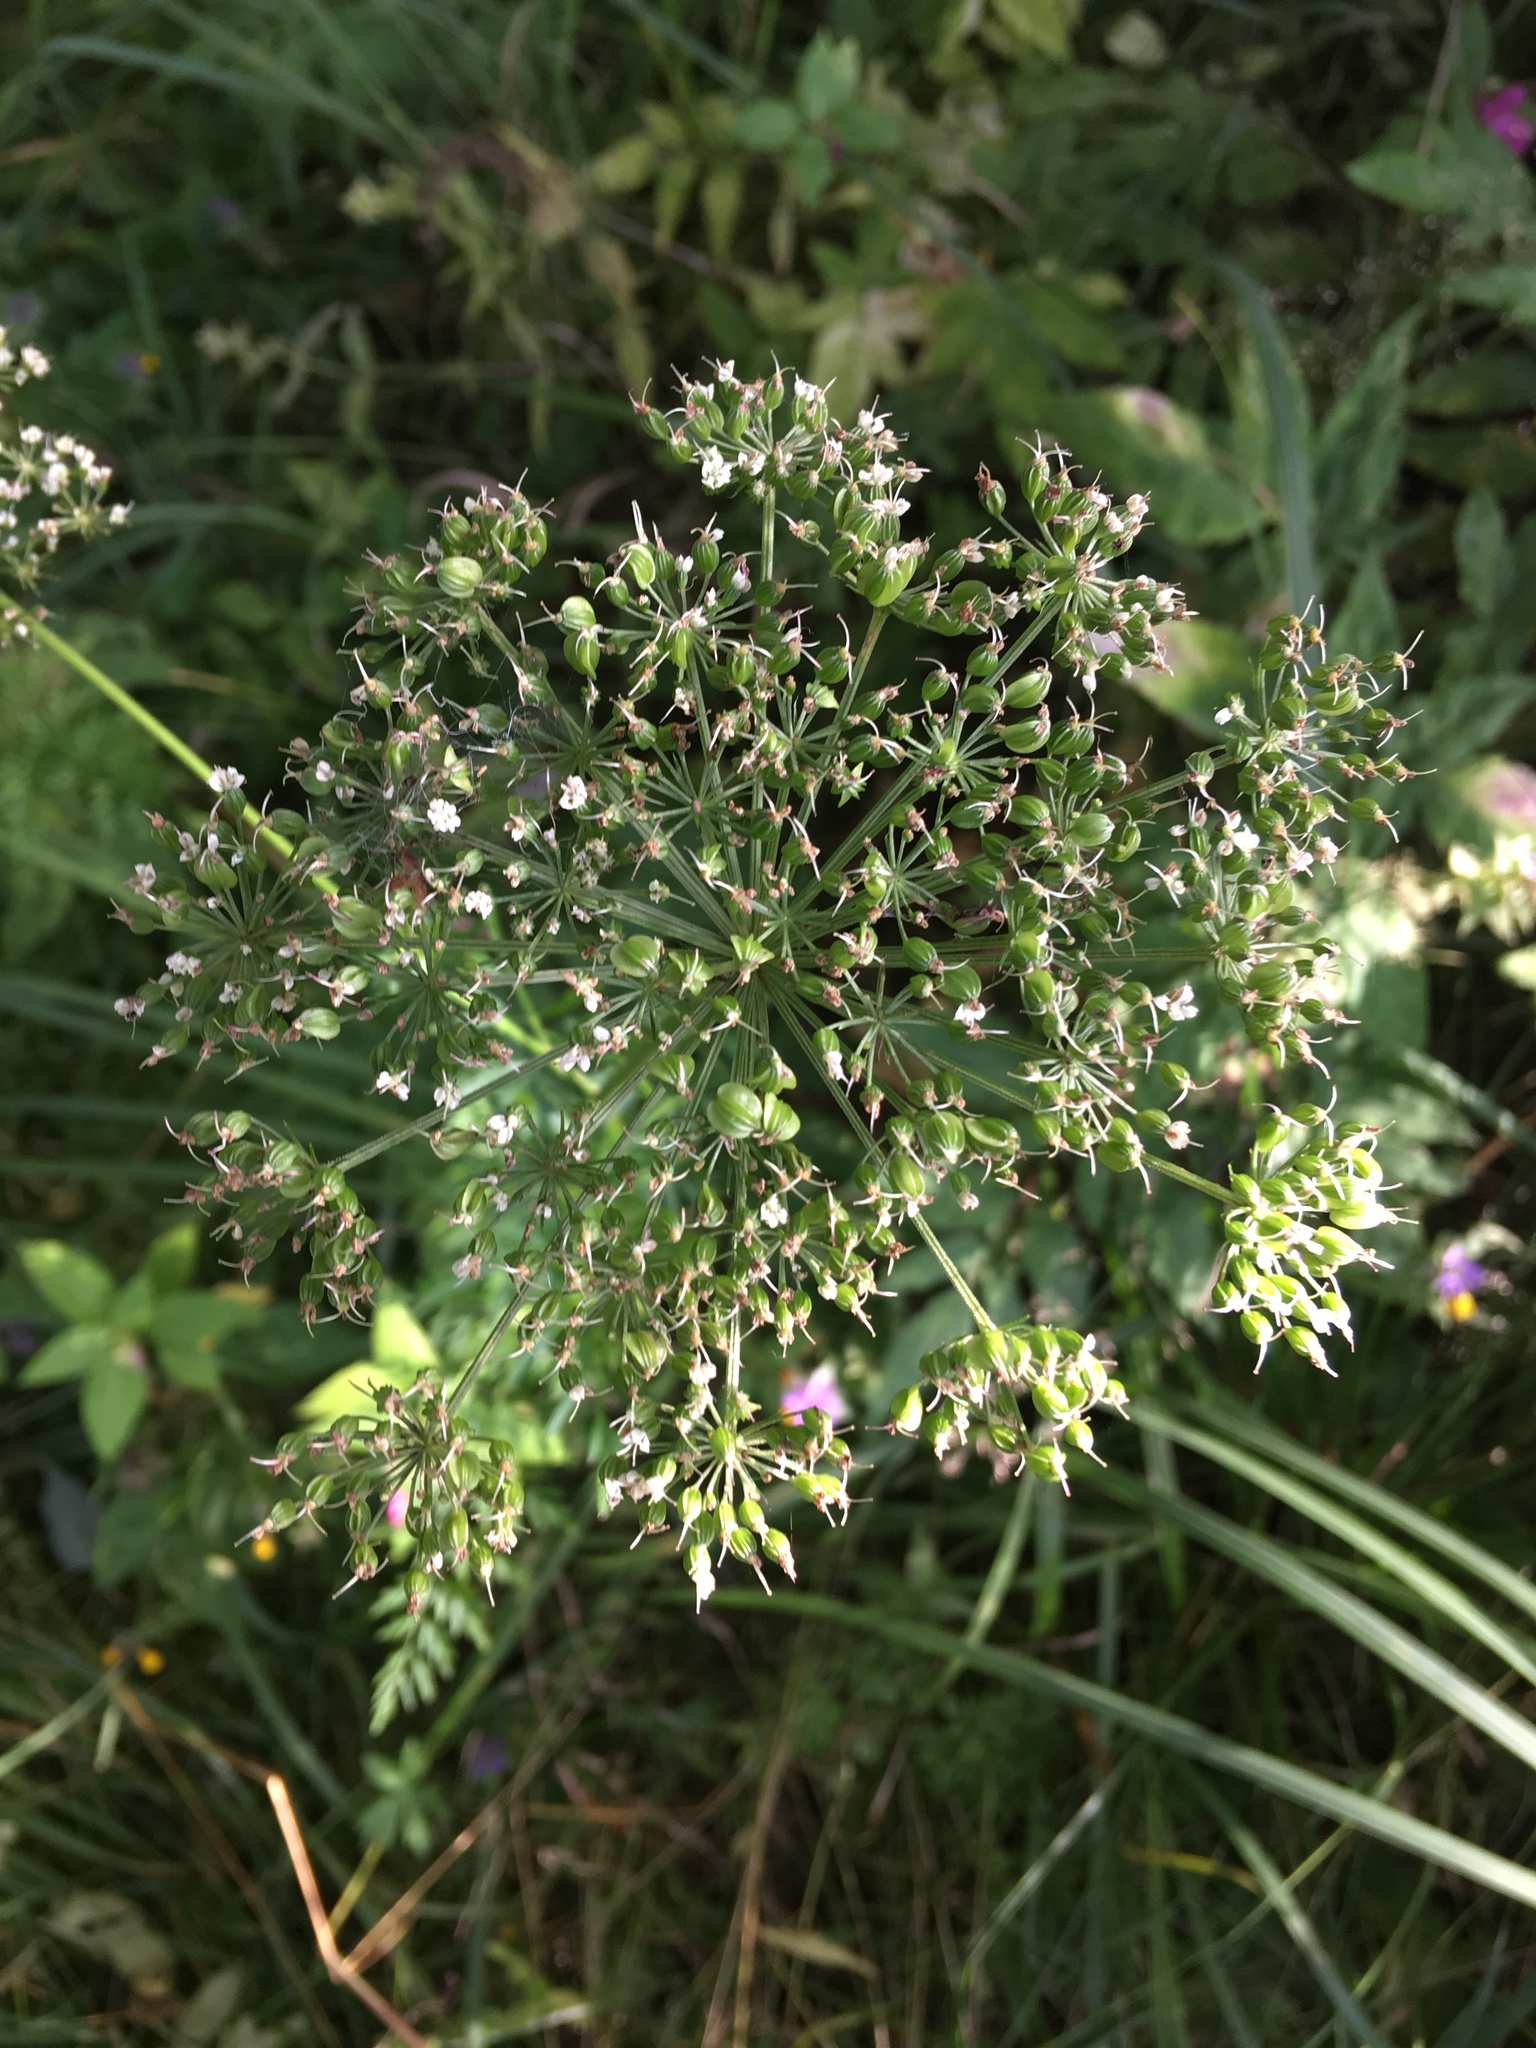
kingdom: Plantae
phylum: Tracheophyta
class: Magnoliopsida
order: Apiales
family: Apiaceae
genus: Selinum
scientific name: Selinum carvifolia
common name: Cambridge milk-parsley
